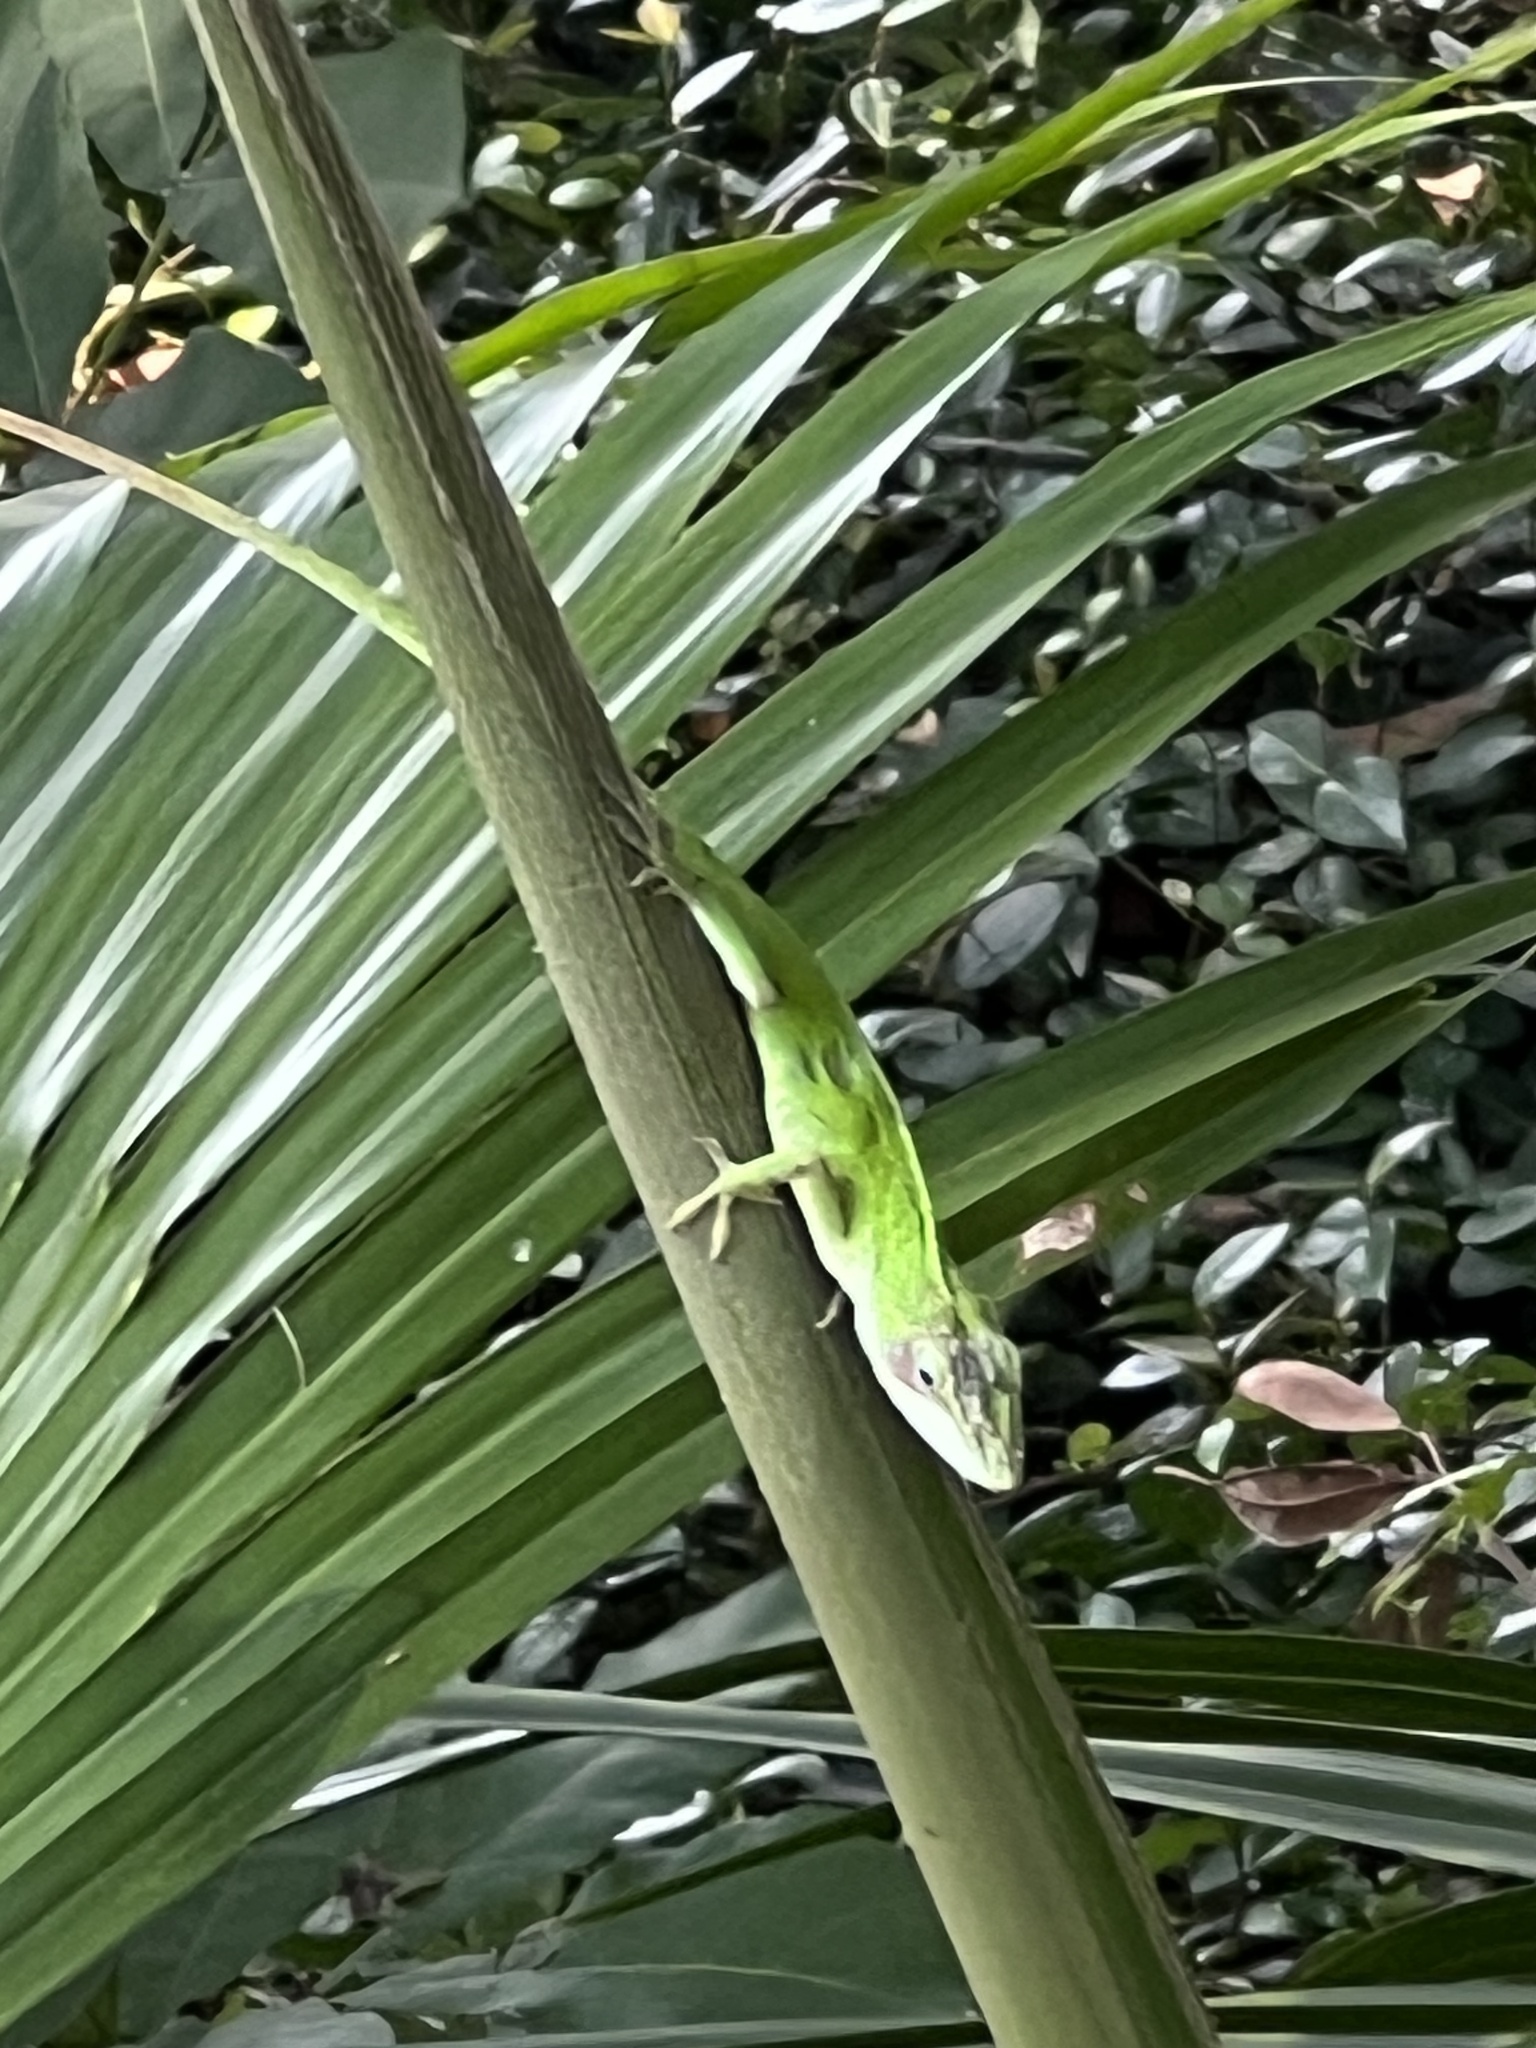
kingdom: Animalia
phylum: Chordata
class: Squamata
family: Dactyloidae
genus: Anolis
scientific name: Anolis carolinensis
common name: Green anole
